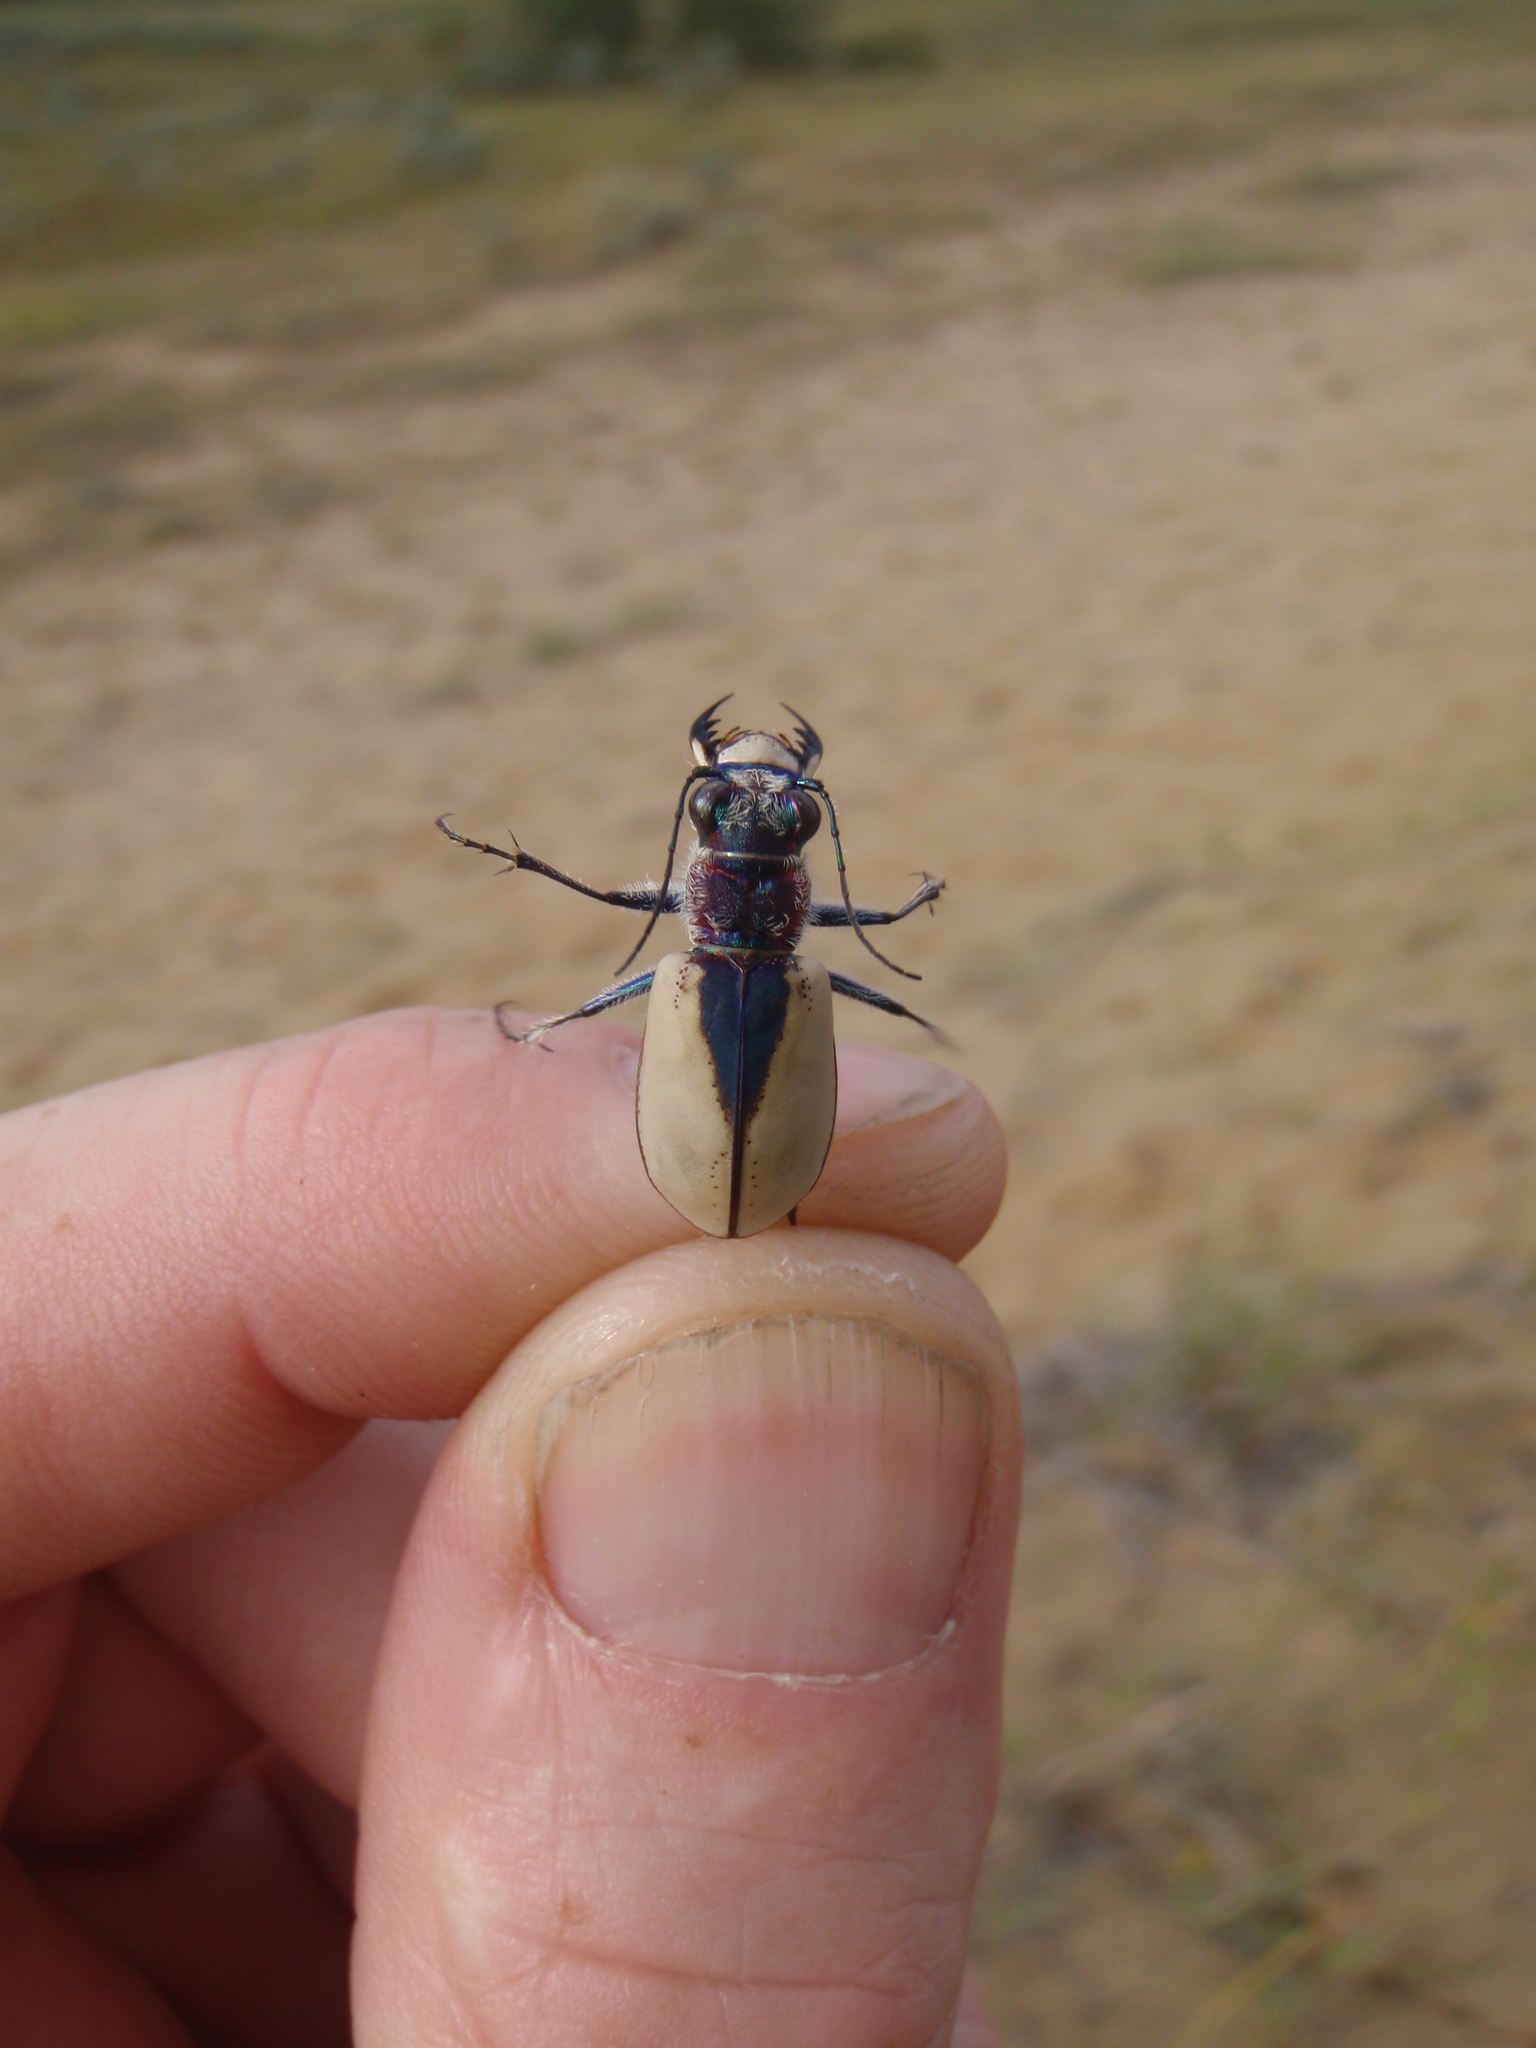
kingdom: Animalia
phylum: Arthropoda
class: Insecta
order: Coleoptera
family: Carabidae
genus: Cicindela
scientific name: Cicindela formosa
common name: Big sand tiger beetle
